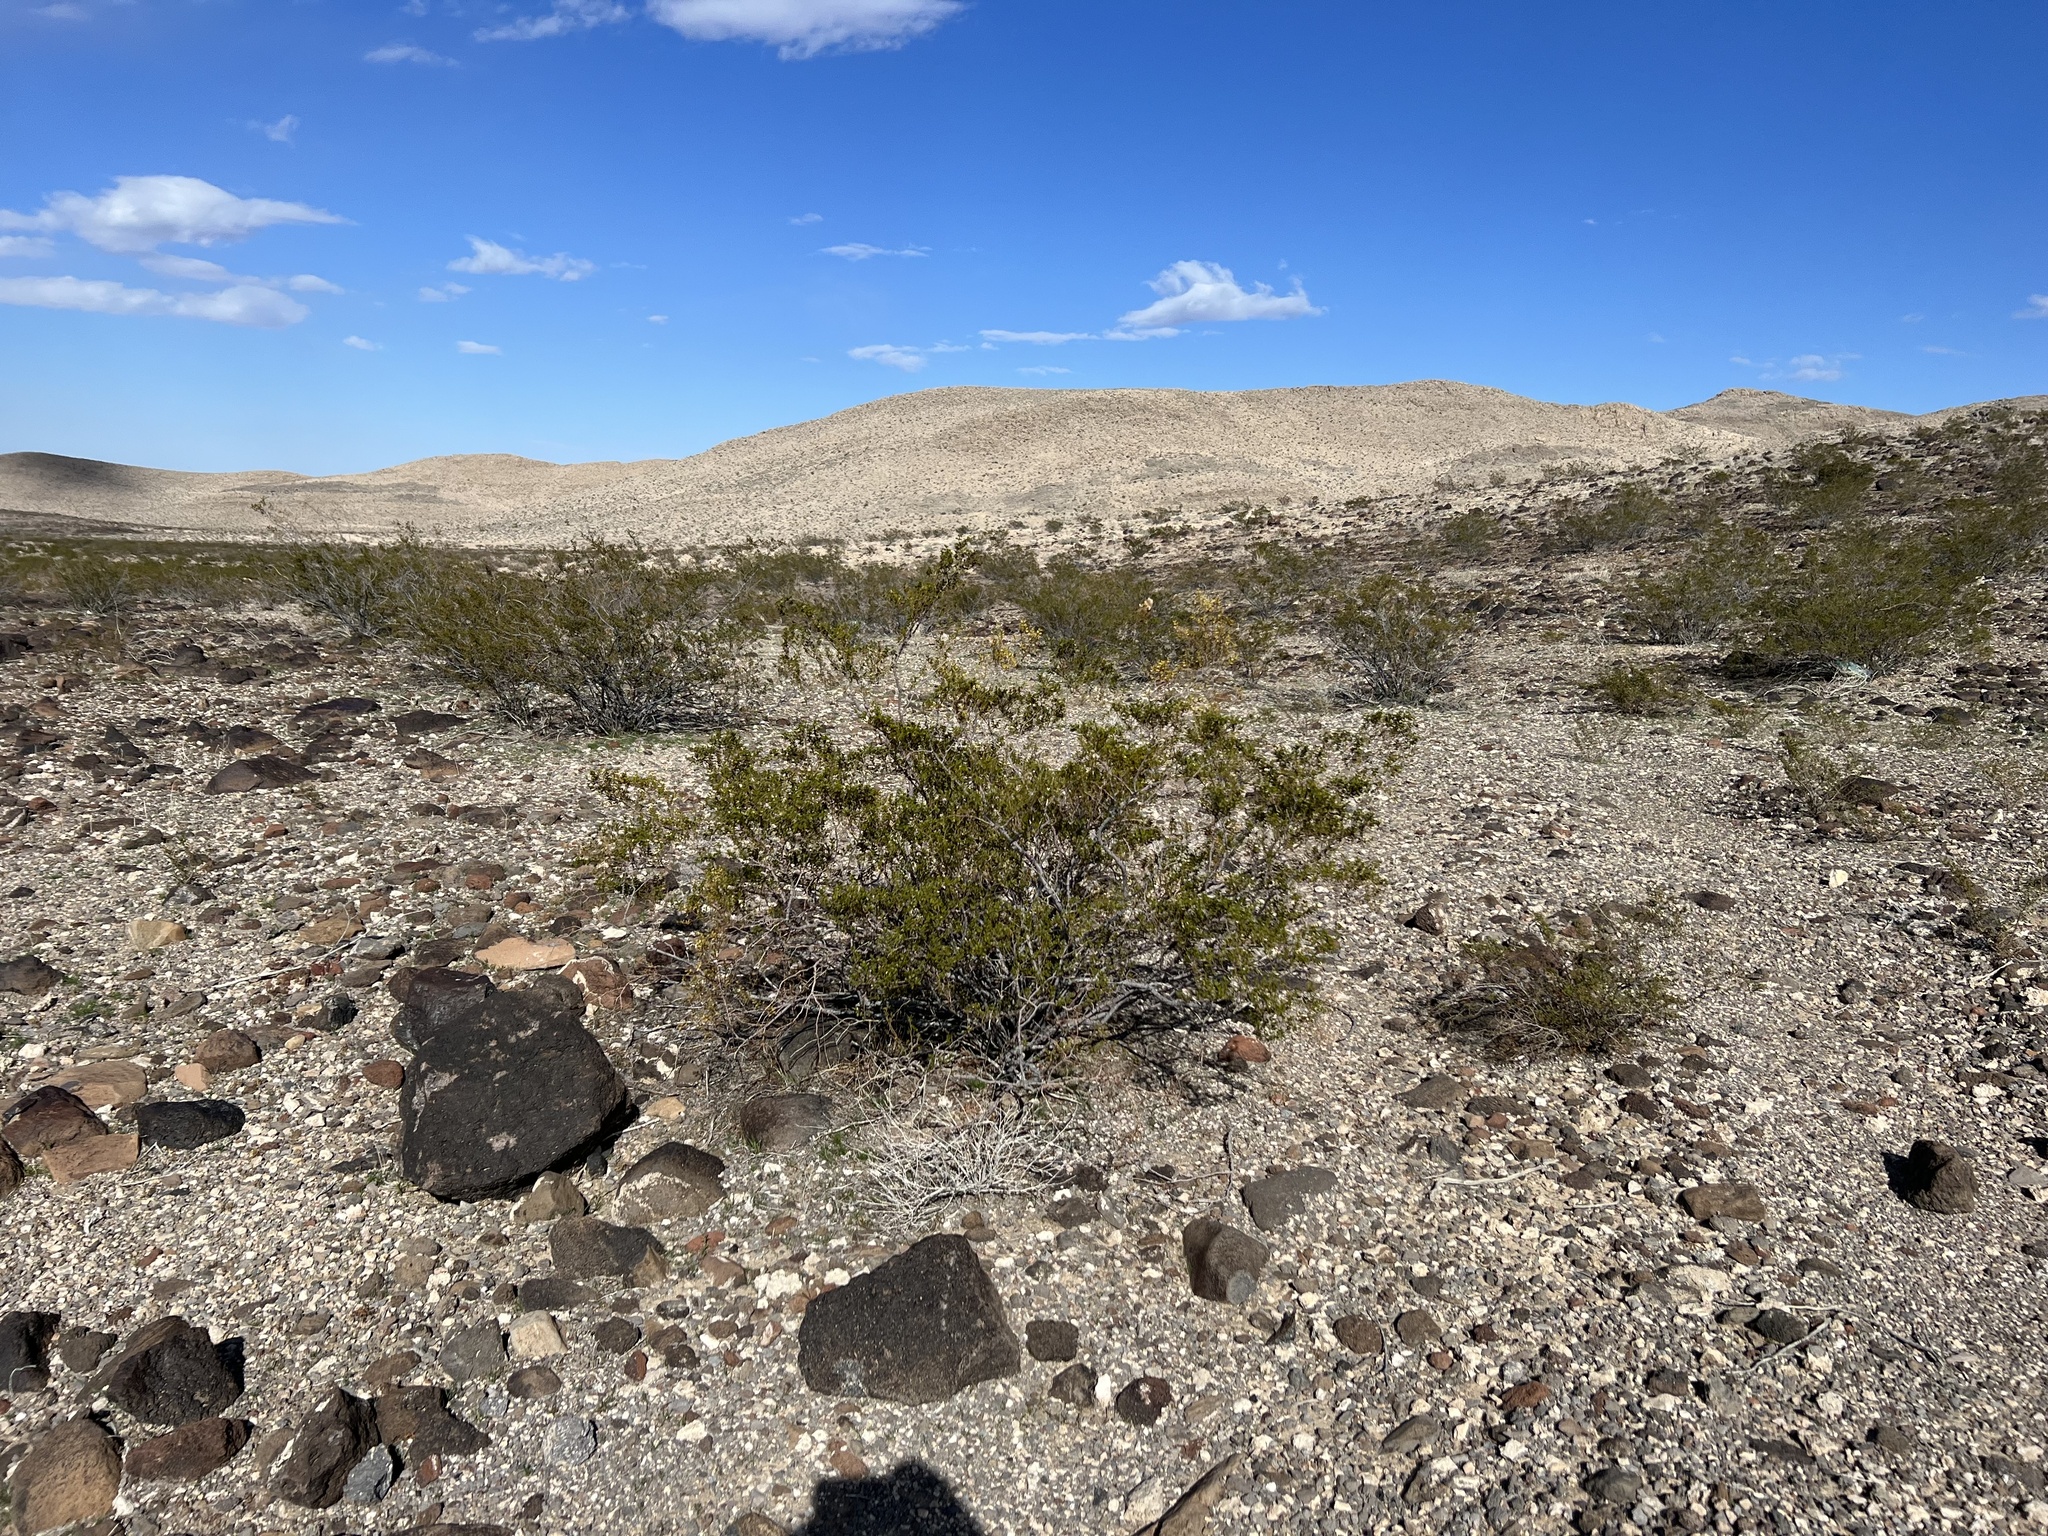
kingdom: Plantae
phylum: Tracheophyta
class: Magnoliopsida
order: Zygophyllales
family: Zygophyllaceae
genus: Larrea
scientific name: Larrea tridentata
